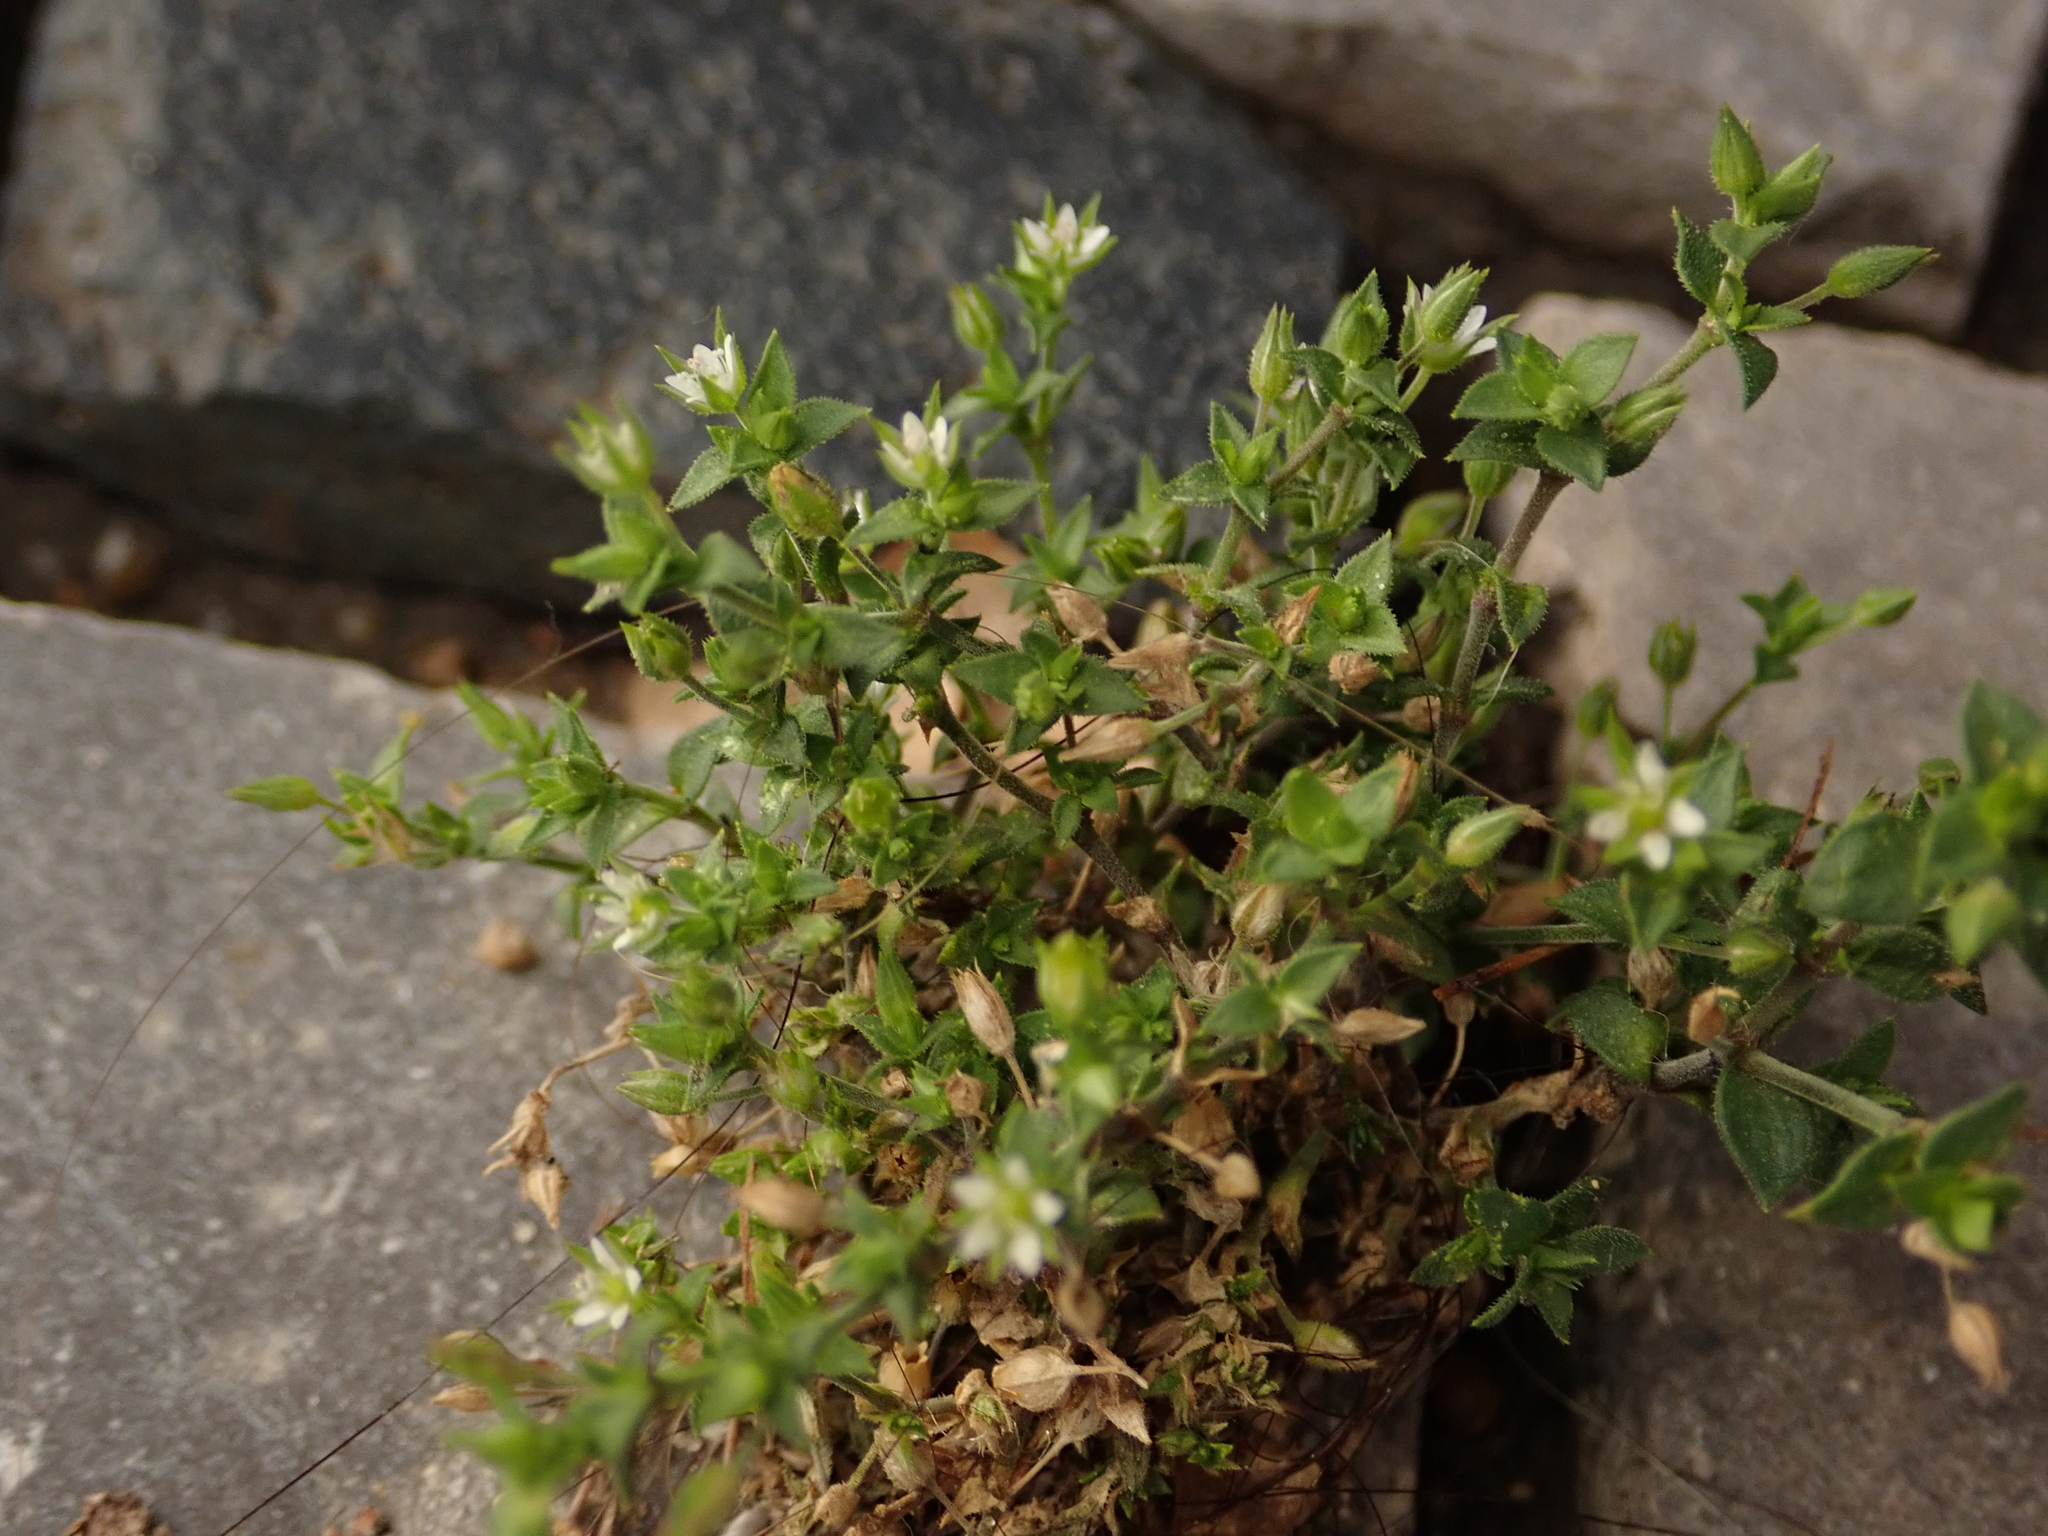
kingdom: Plantae
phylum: Tracheophyta
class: Magnoliopsida
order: Caryophyllales
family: Caryophyllaceae
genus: Arenaria
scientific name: Arenaria serpyllifolia
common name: Thyme-leaved sandwort
